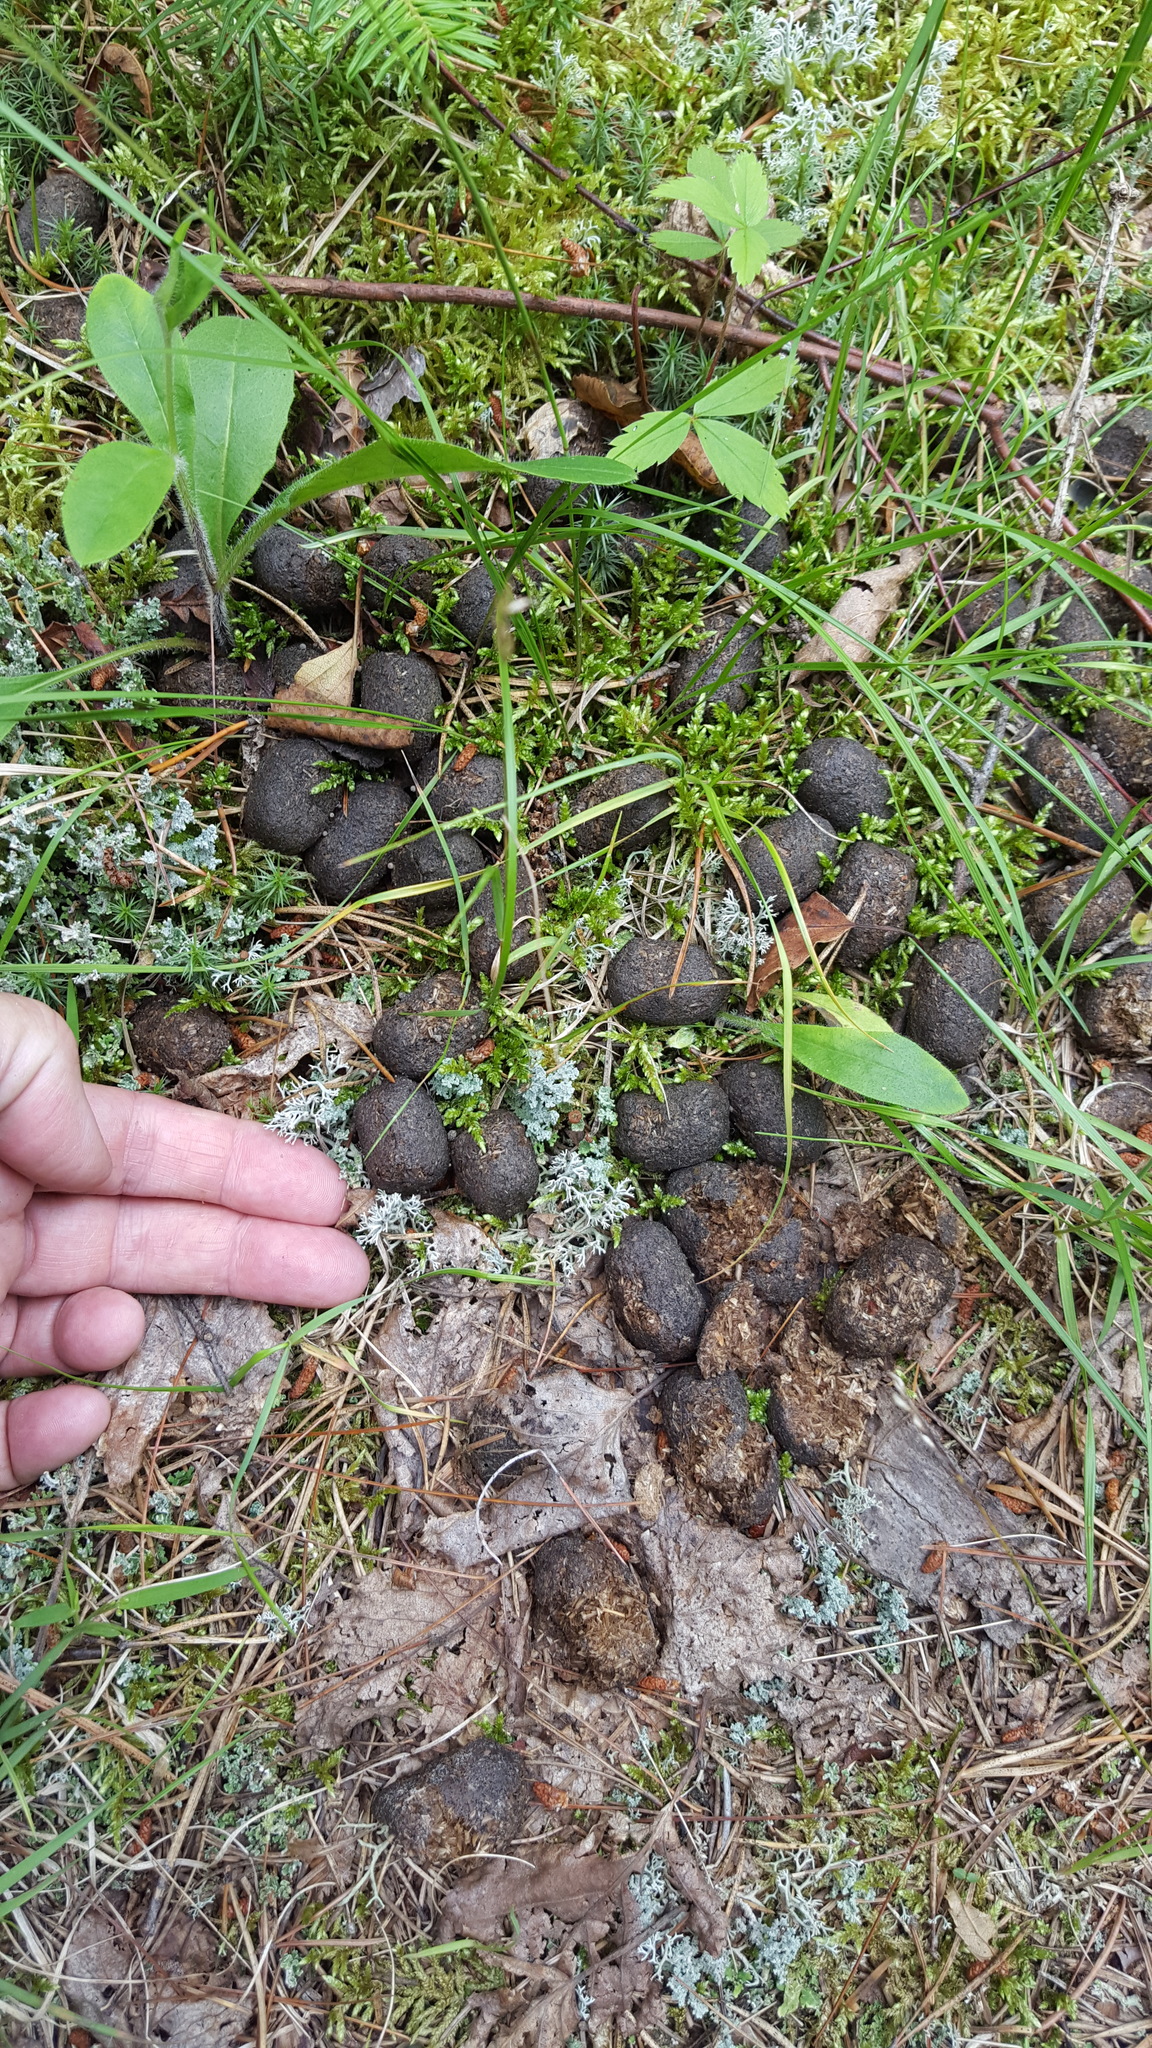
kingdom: Animalia
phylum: Chordata
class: Mammalia
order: Artiodactyla
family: Cervidae
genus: Alces
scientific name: Alces alces
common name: Moose
